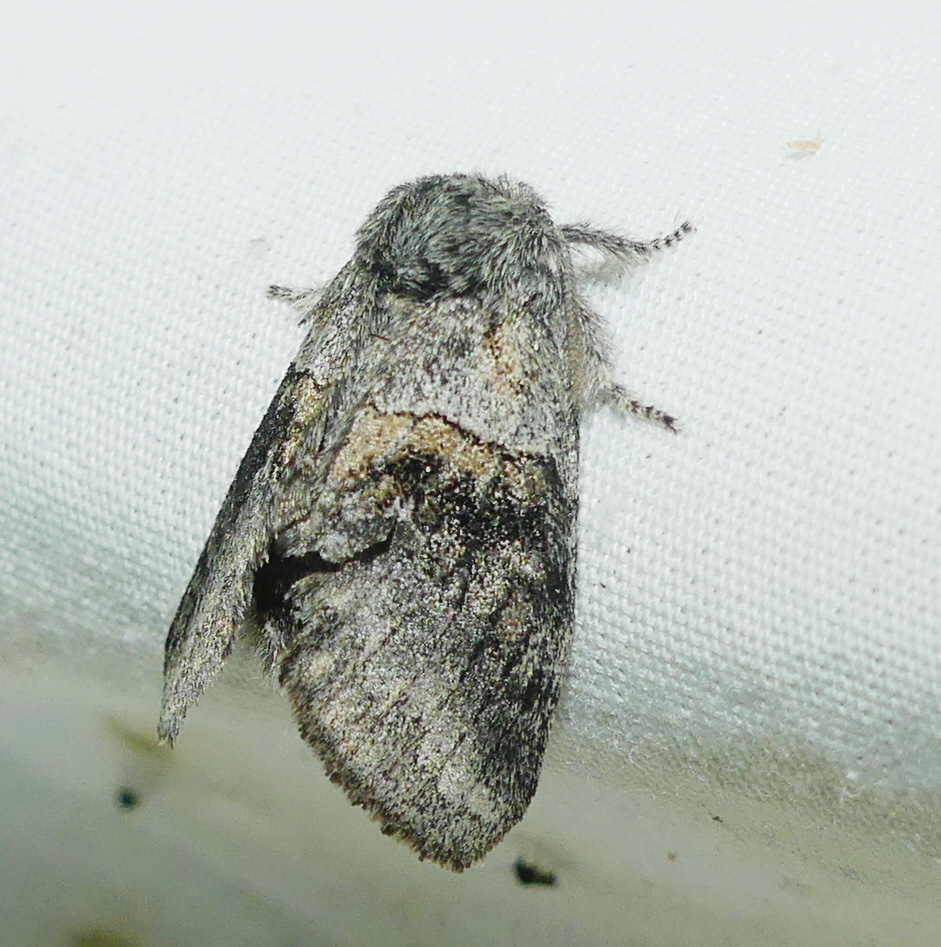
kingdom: Animalia
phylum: Arthropoda
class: Insecta
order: Lepidoptera
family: Notodontidae
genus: Gluphisia
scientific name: Gluphisia septentrionis
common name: Common gluphisia
